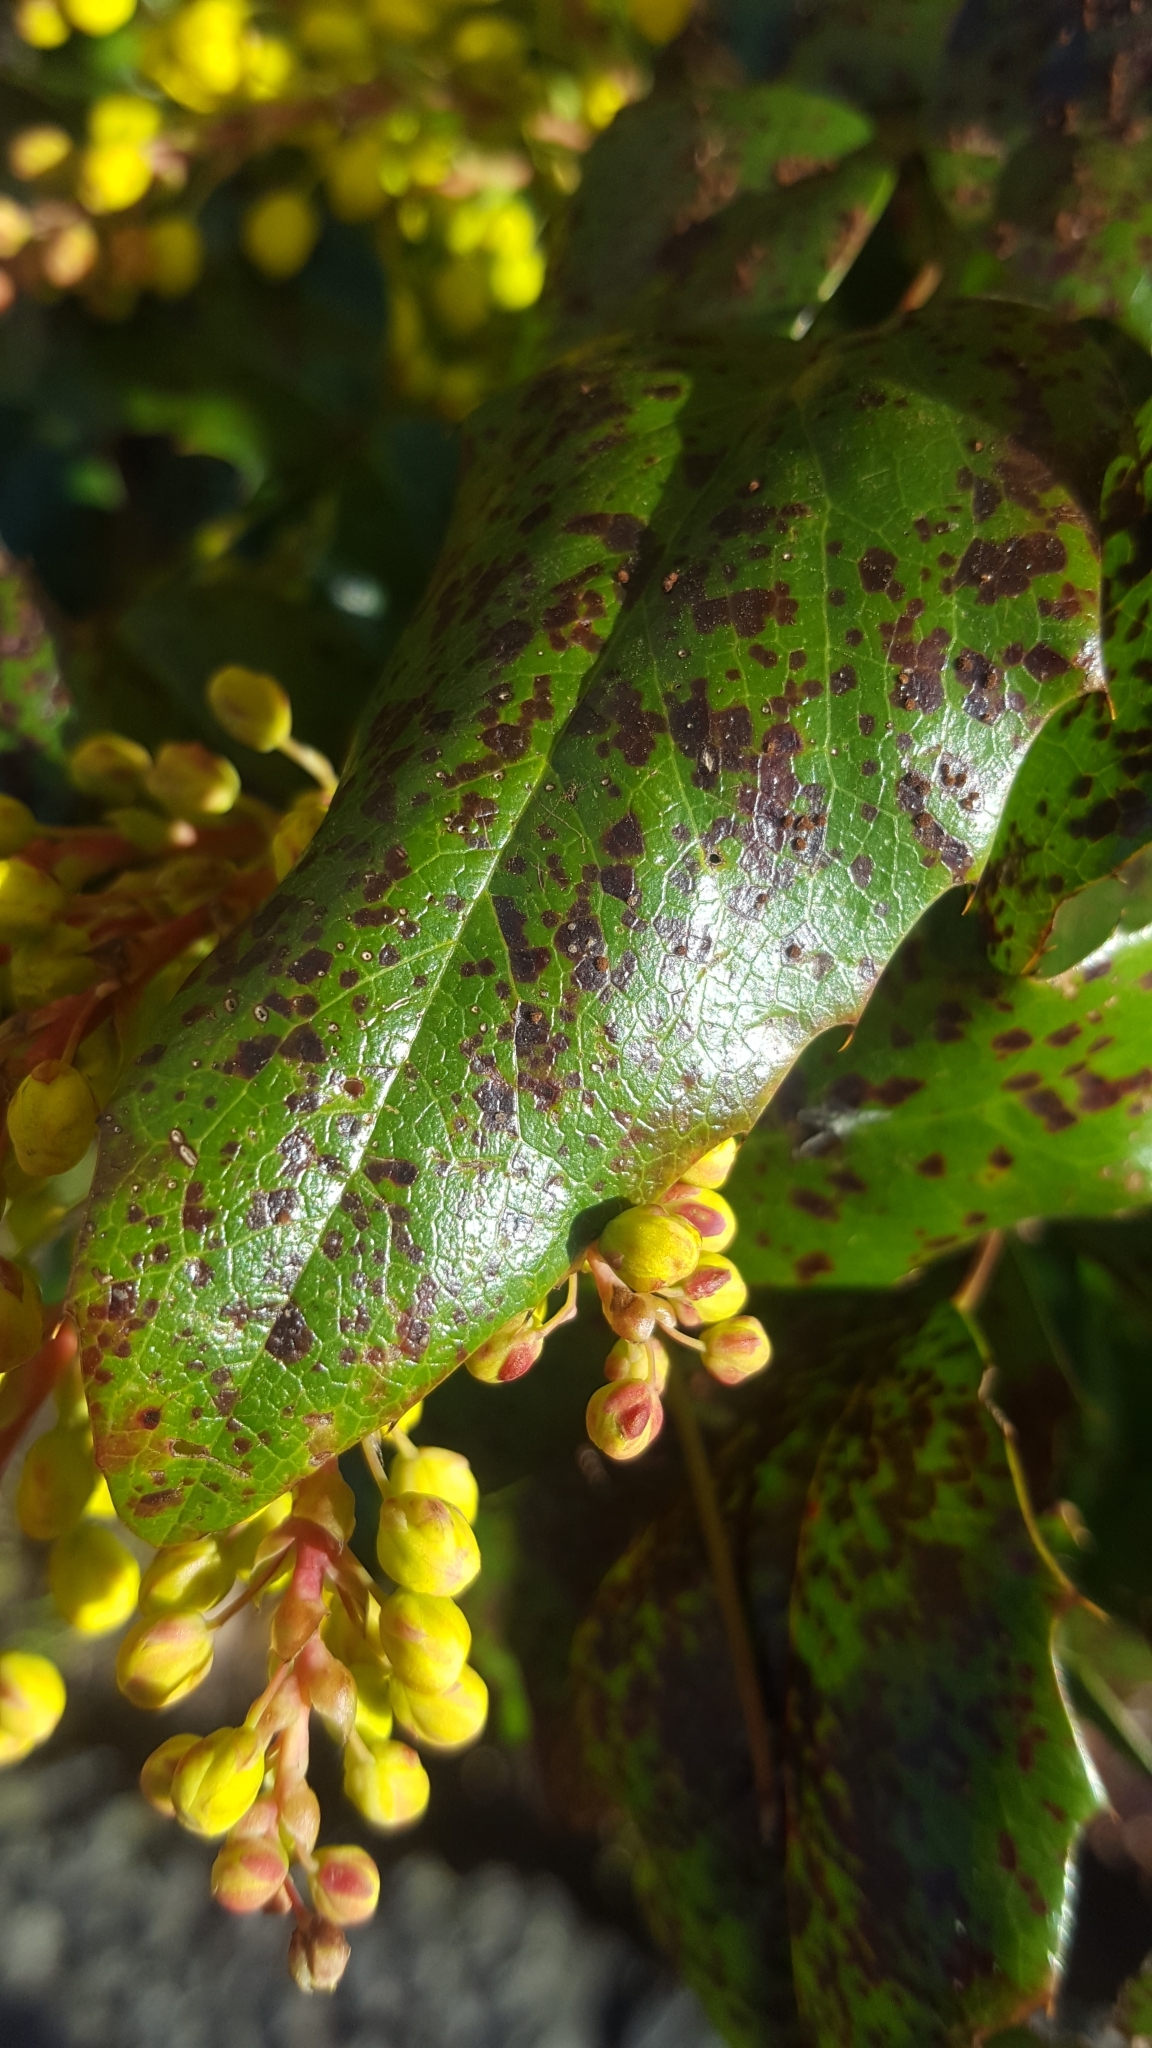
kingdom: Fungi
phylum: Basidiomycota
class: Pucciniomycetes
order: Pucciniales
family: Pucciniaceae
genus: Cumminsiella
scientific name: Cumminsiella mirabilissima
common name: Mahonia rust
